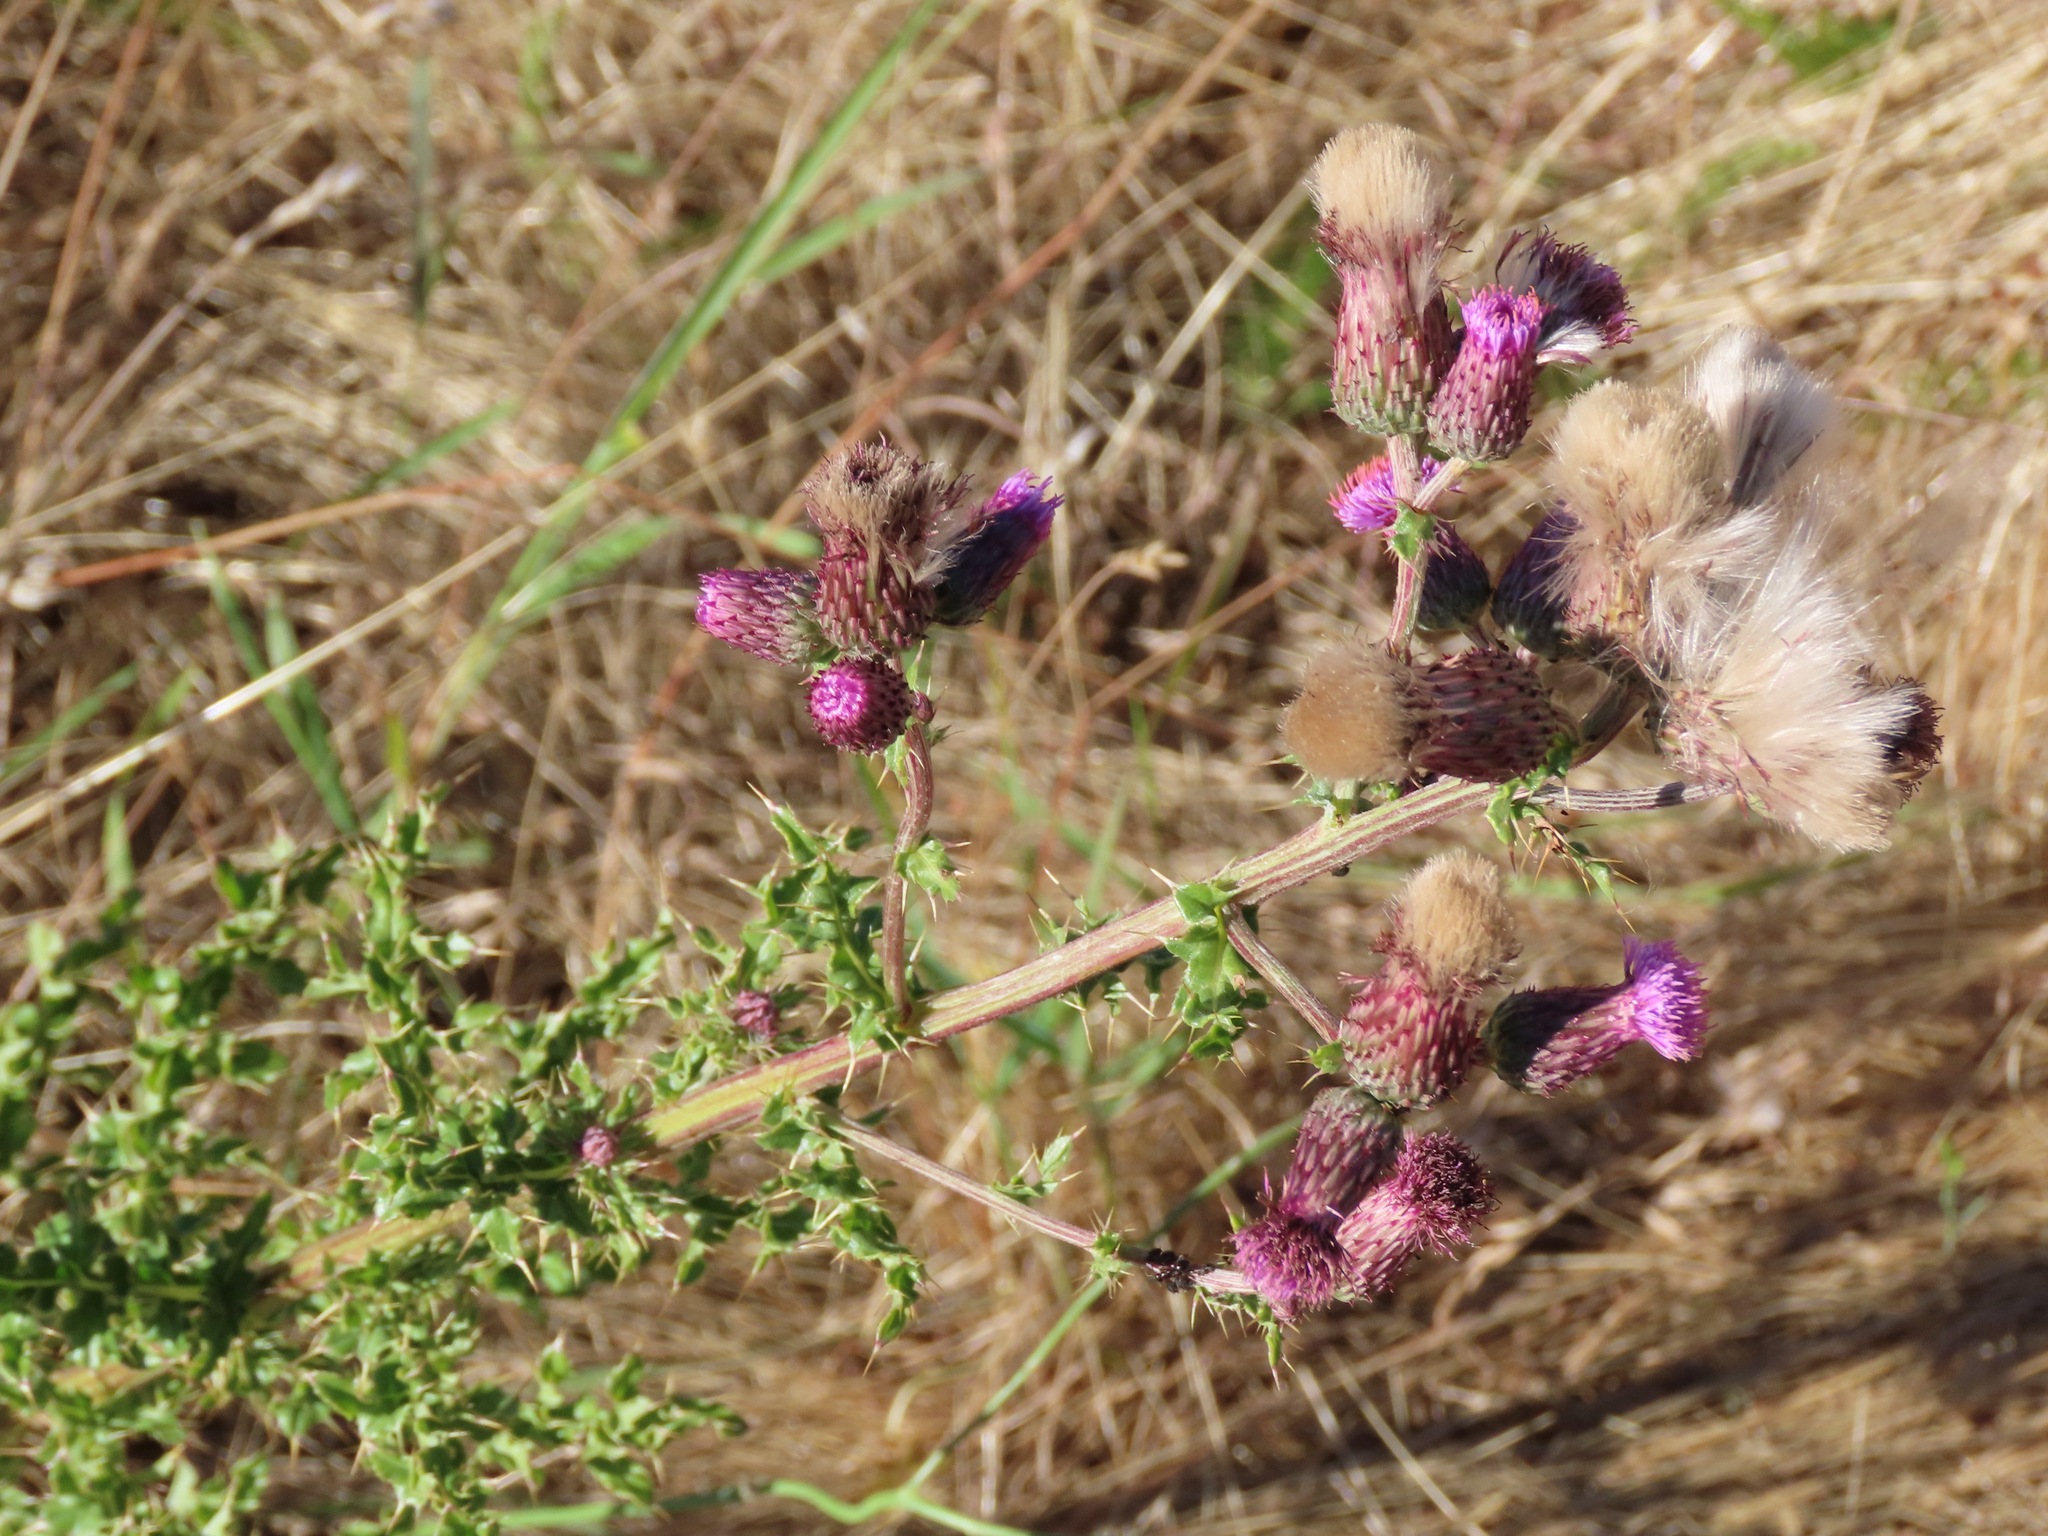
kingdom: Plantae
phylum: Tracheophyta
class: Magnoliopsida
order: Asterales
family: Asteraceae
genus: Cirsium
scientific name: Cirsium arvense
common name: Creeping thistle
